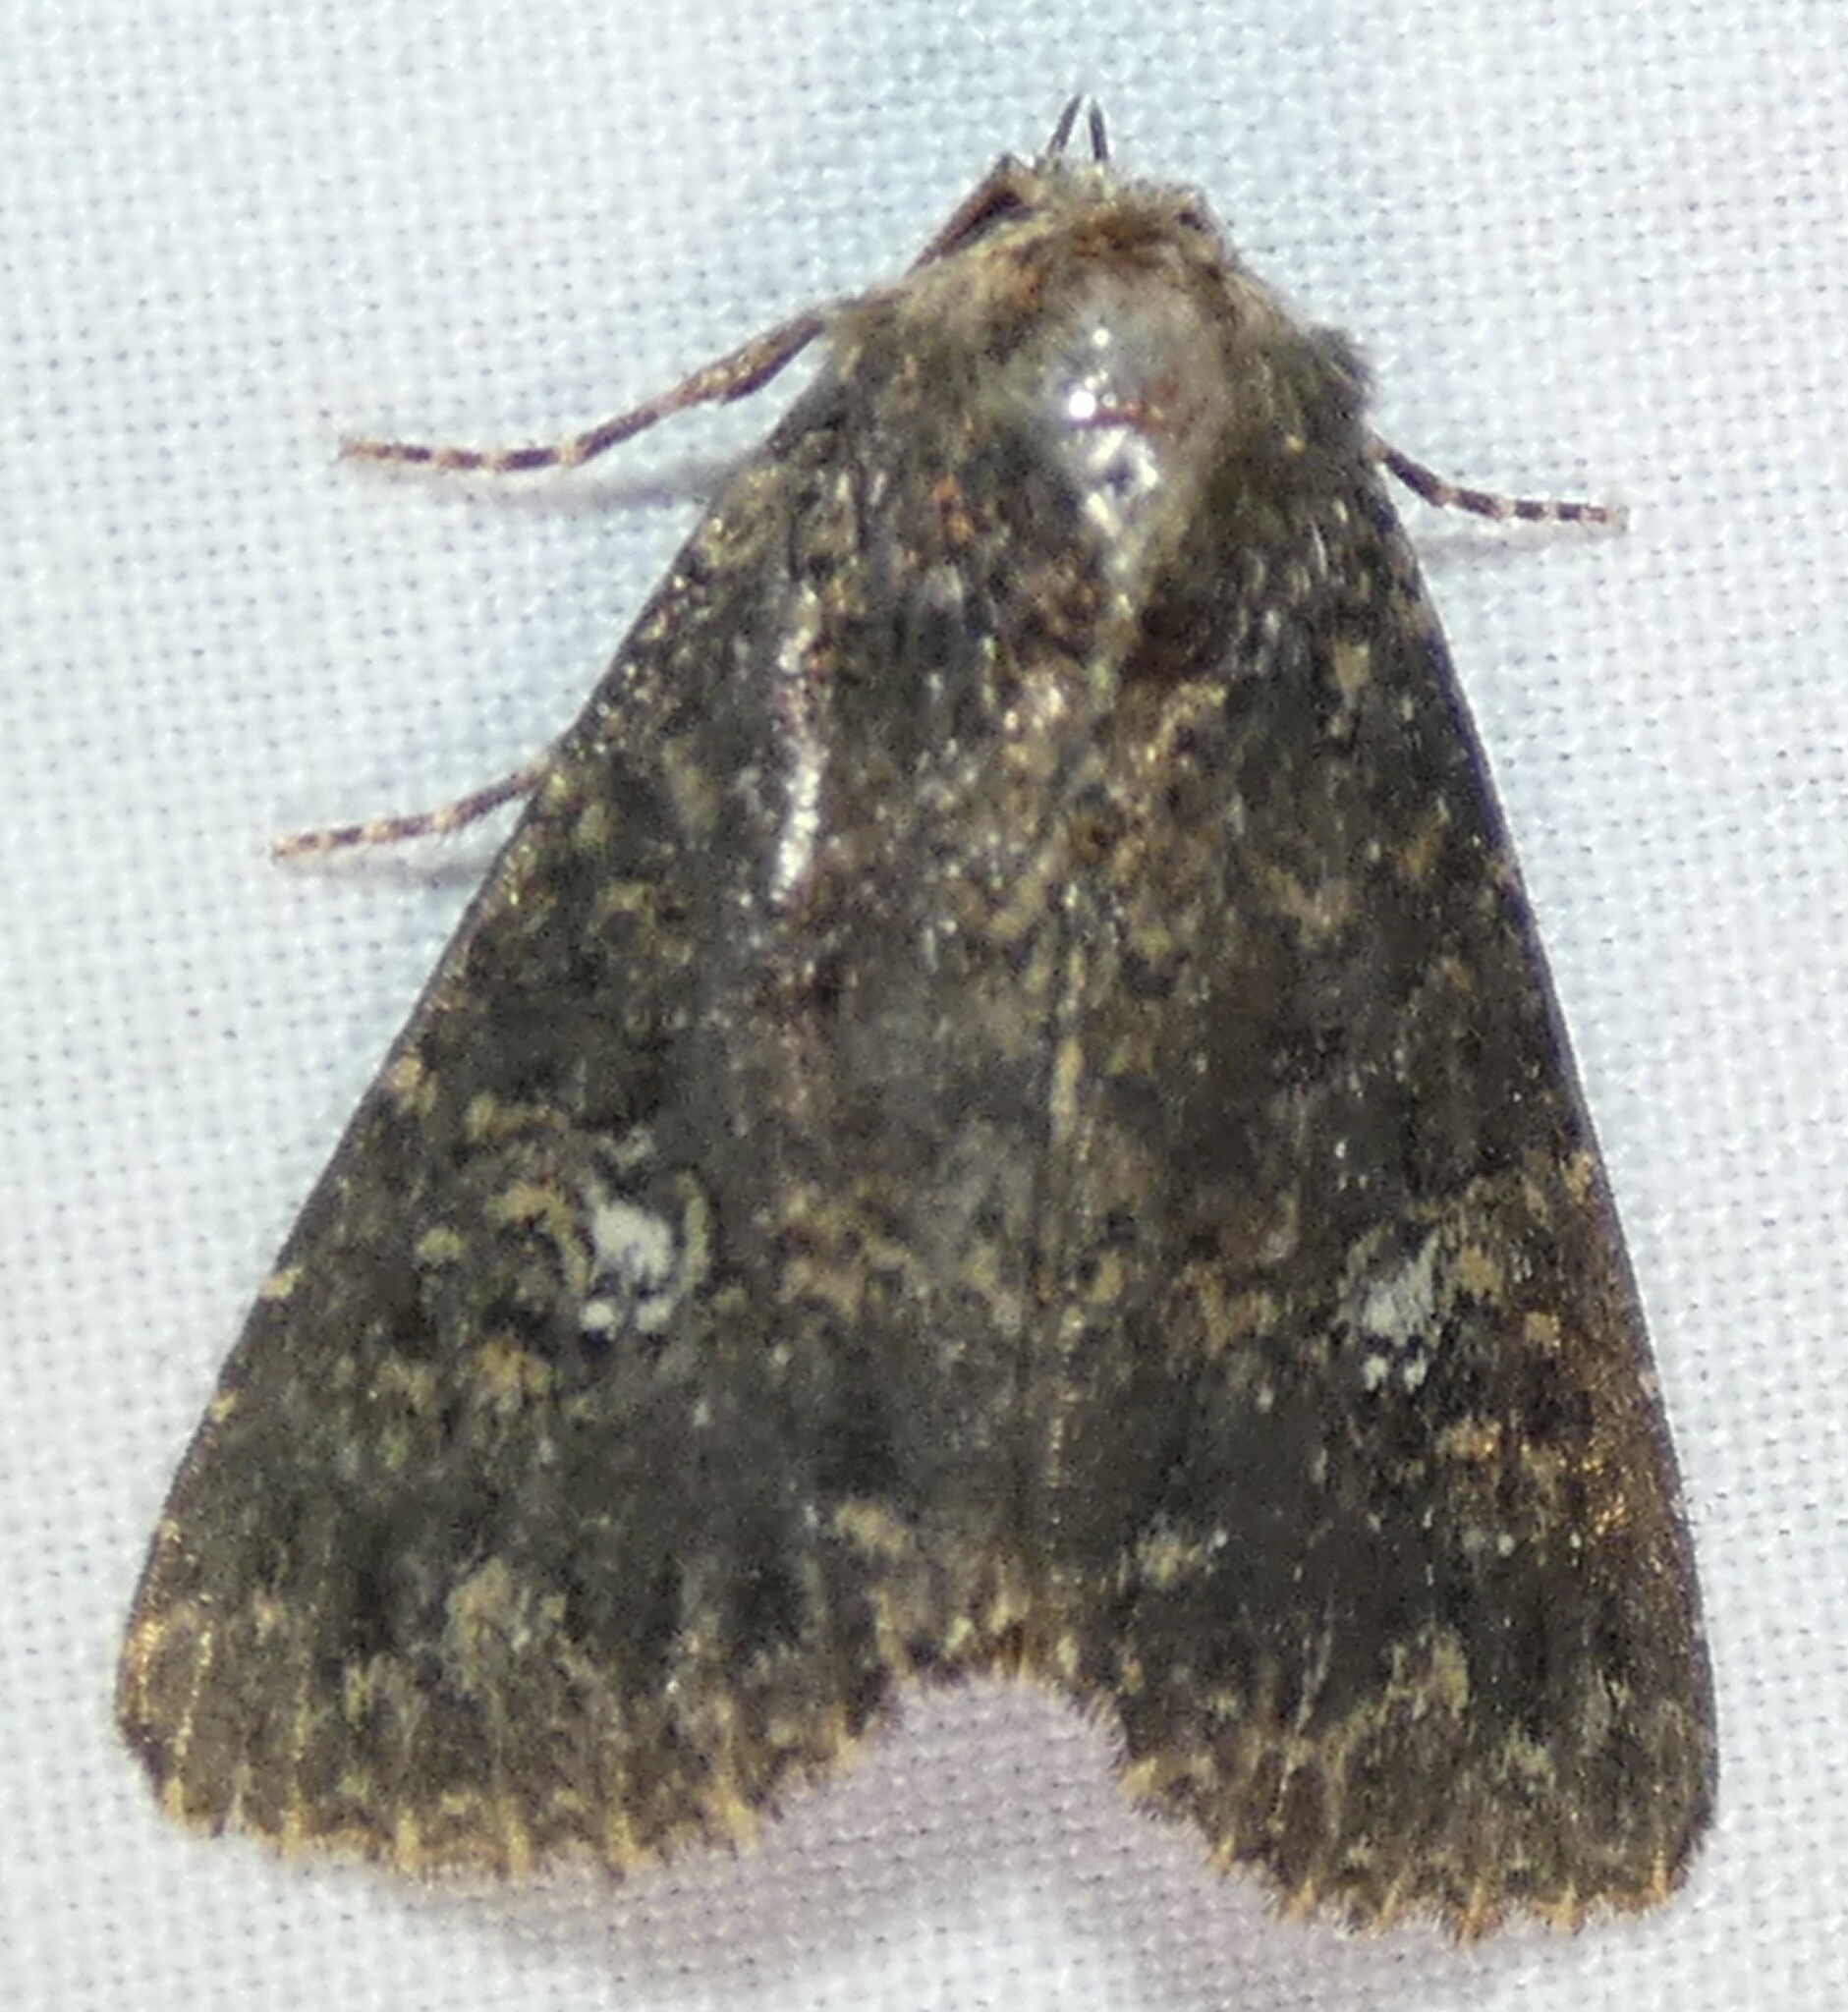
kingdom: Animalia
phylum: Arthropoda
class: Insecta
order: Lepidoptera
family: Noctuidae
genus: Condica
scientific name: Condica vecors
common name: Dusky groundling
